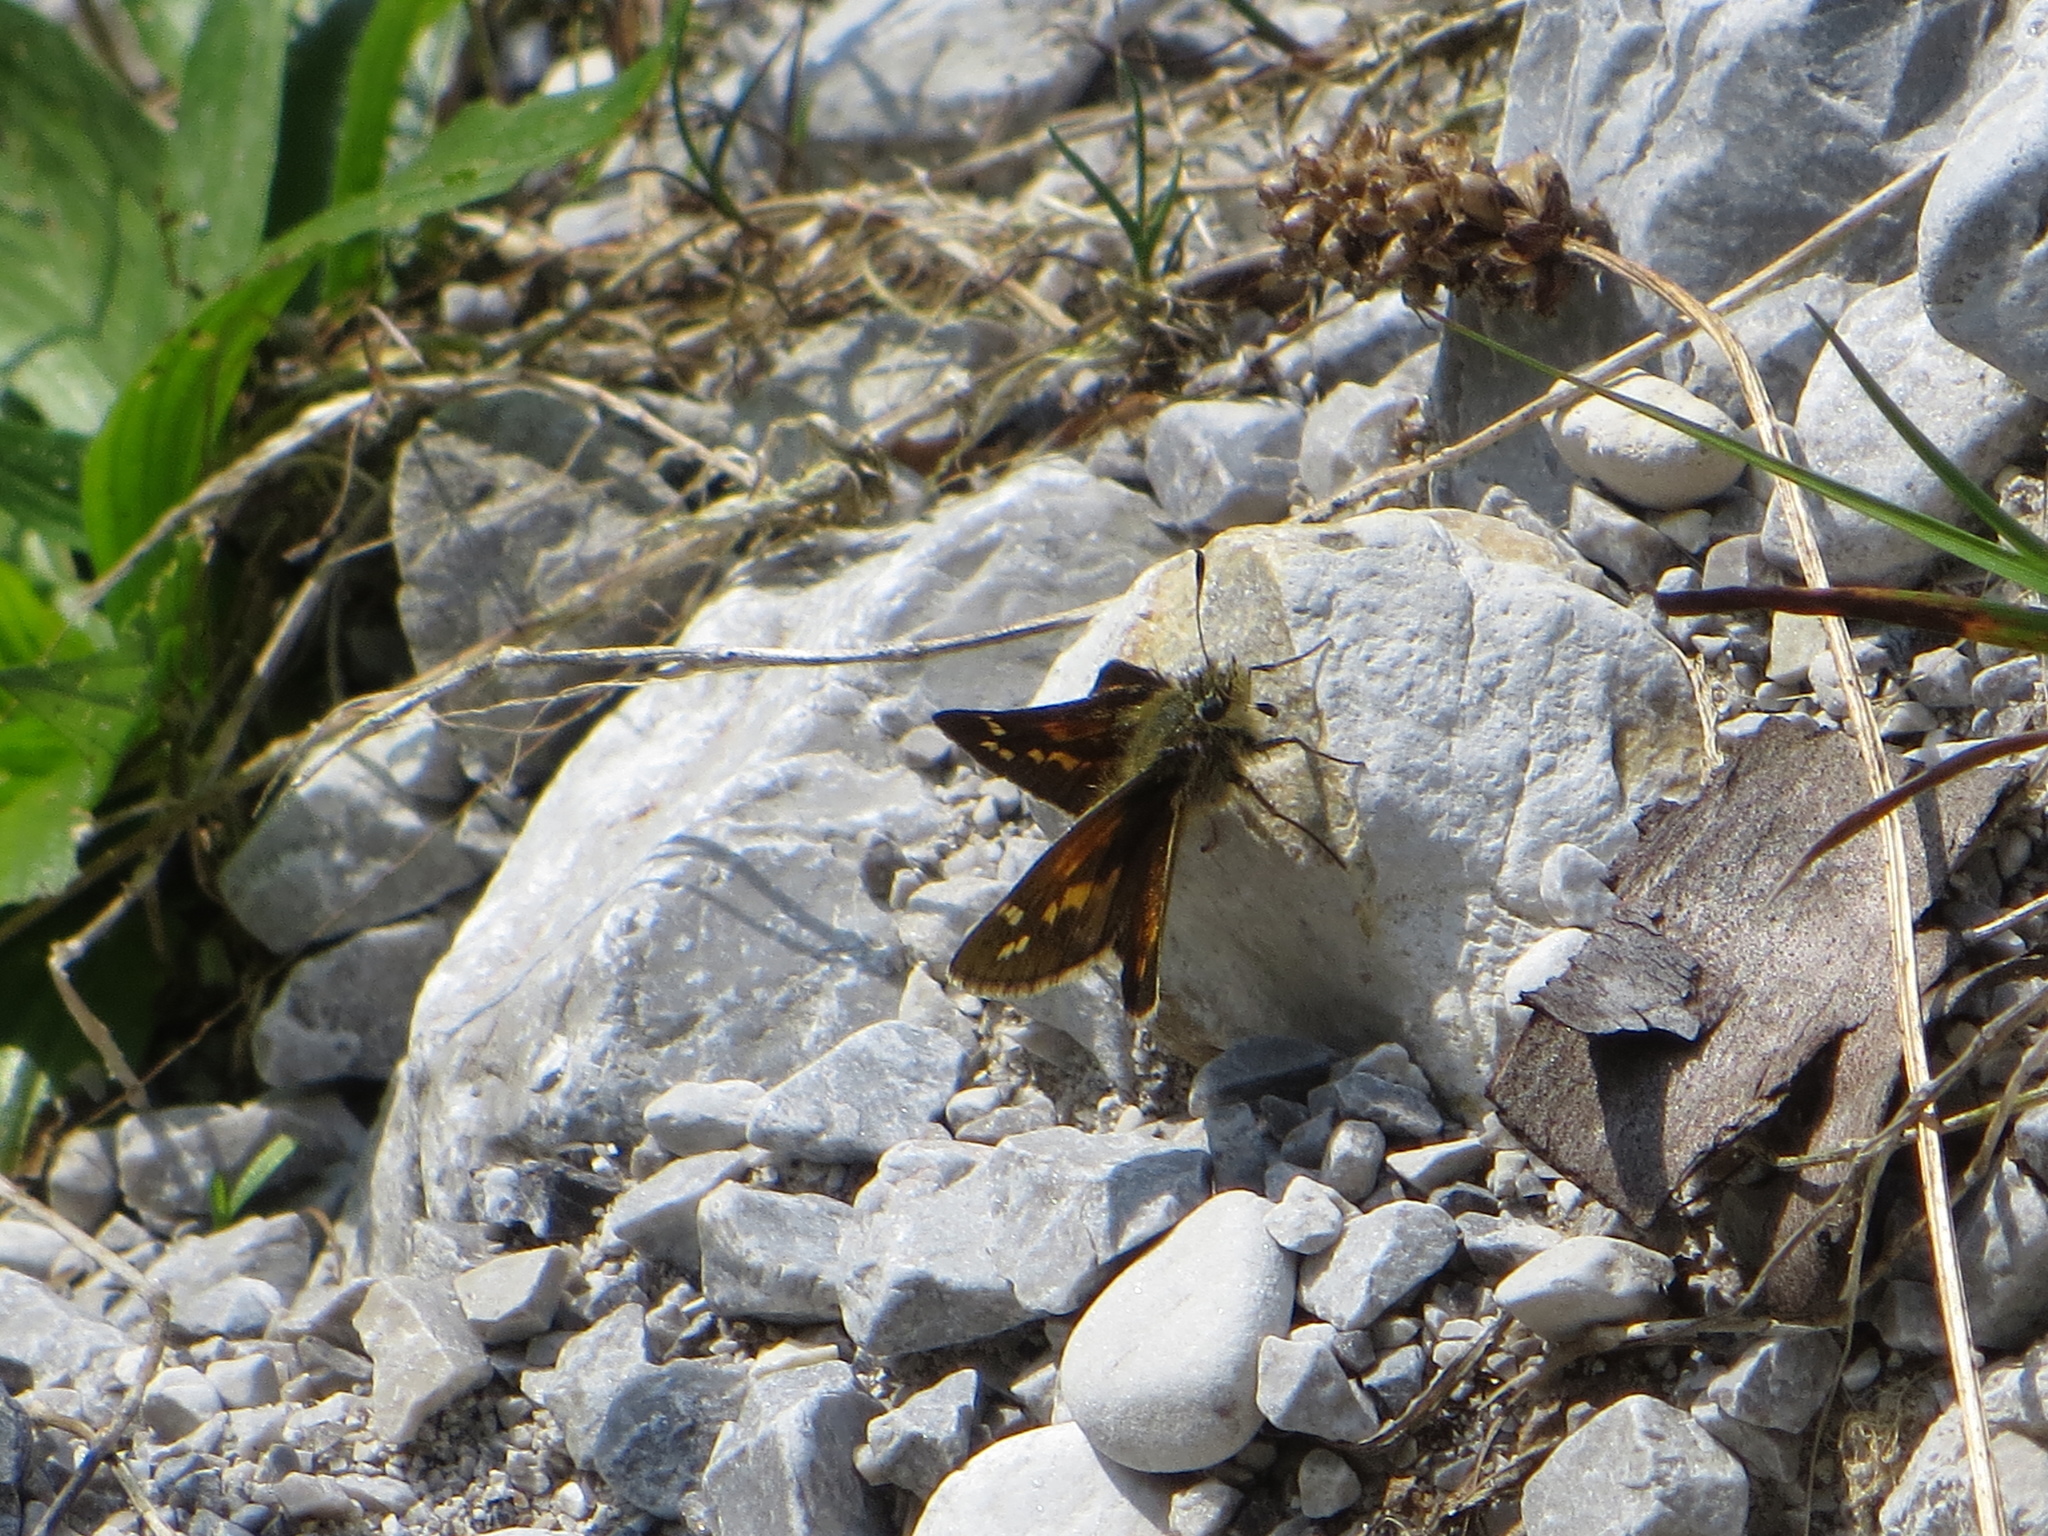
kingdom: Animalia
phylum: Arthropoda
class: Insecta
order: Lepidoptera
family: Hesperiidae
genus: Hesperia
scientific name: Hesperia comma
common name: Common branded skipper
